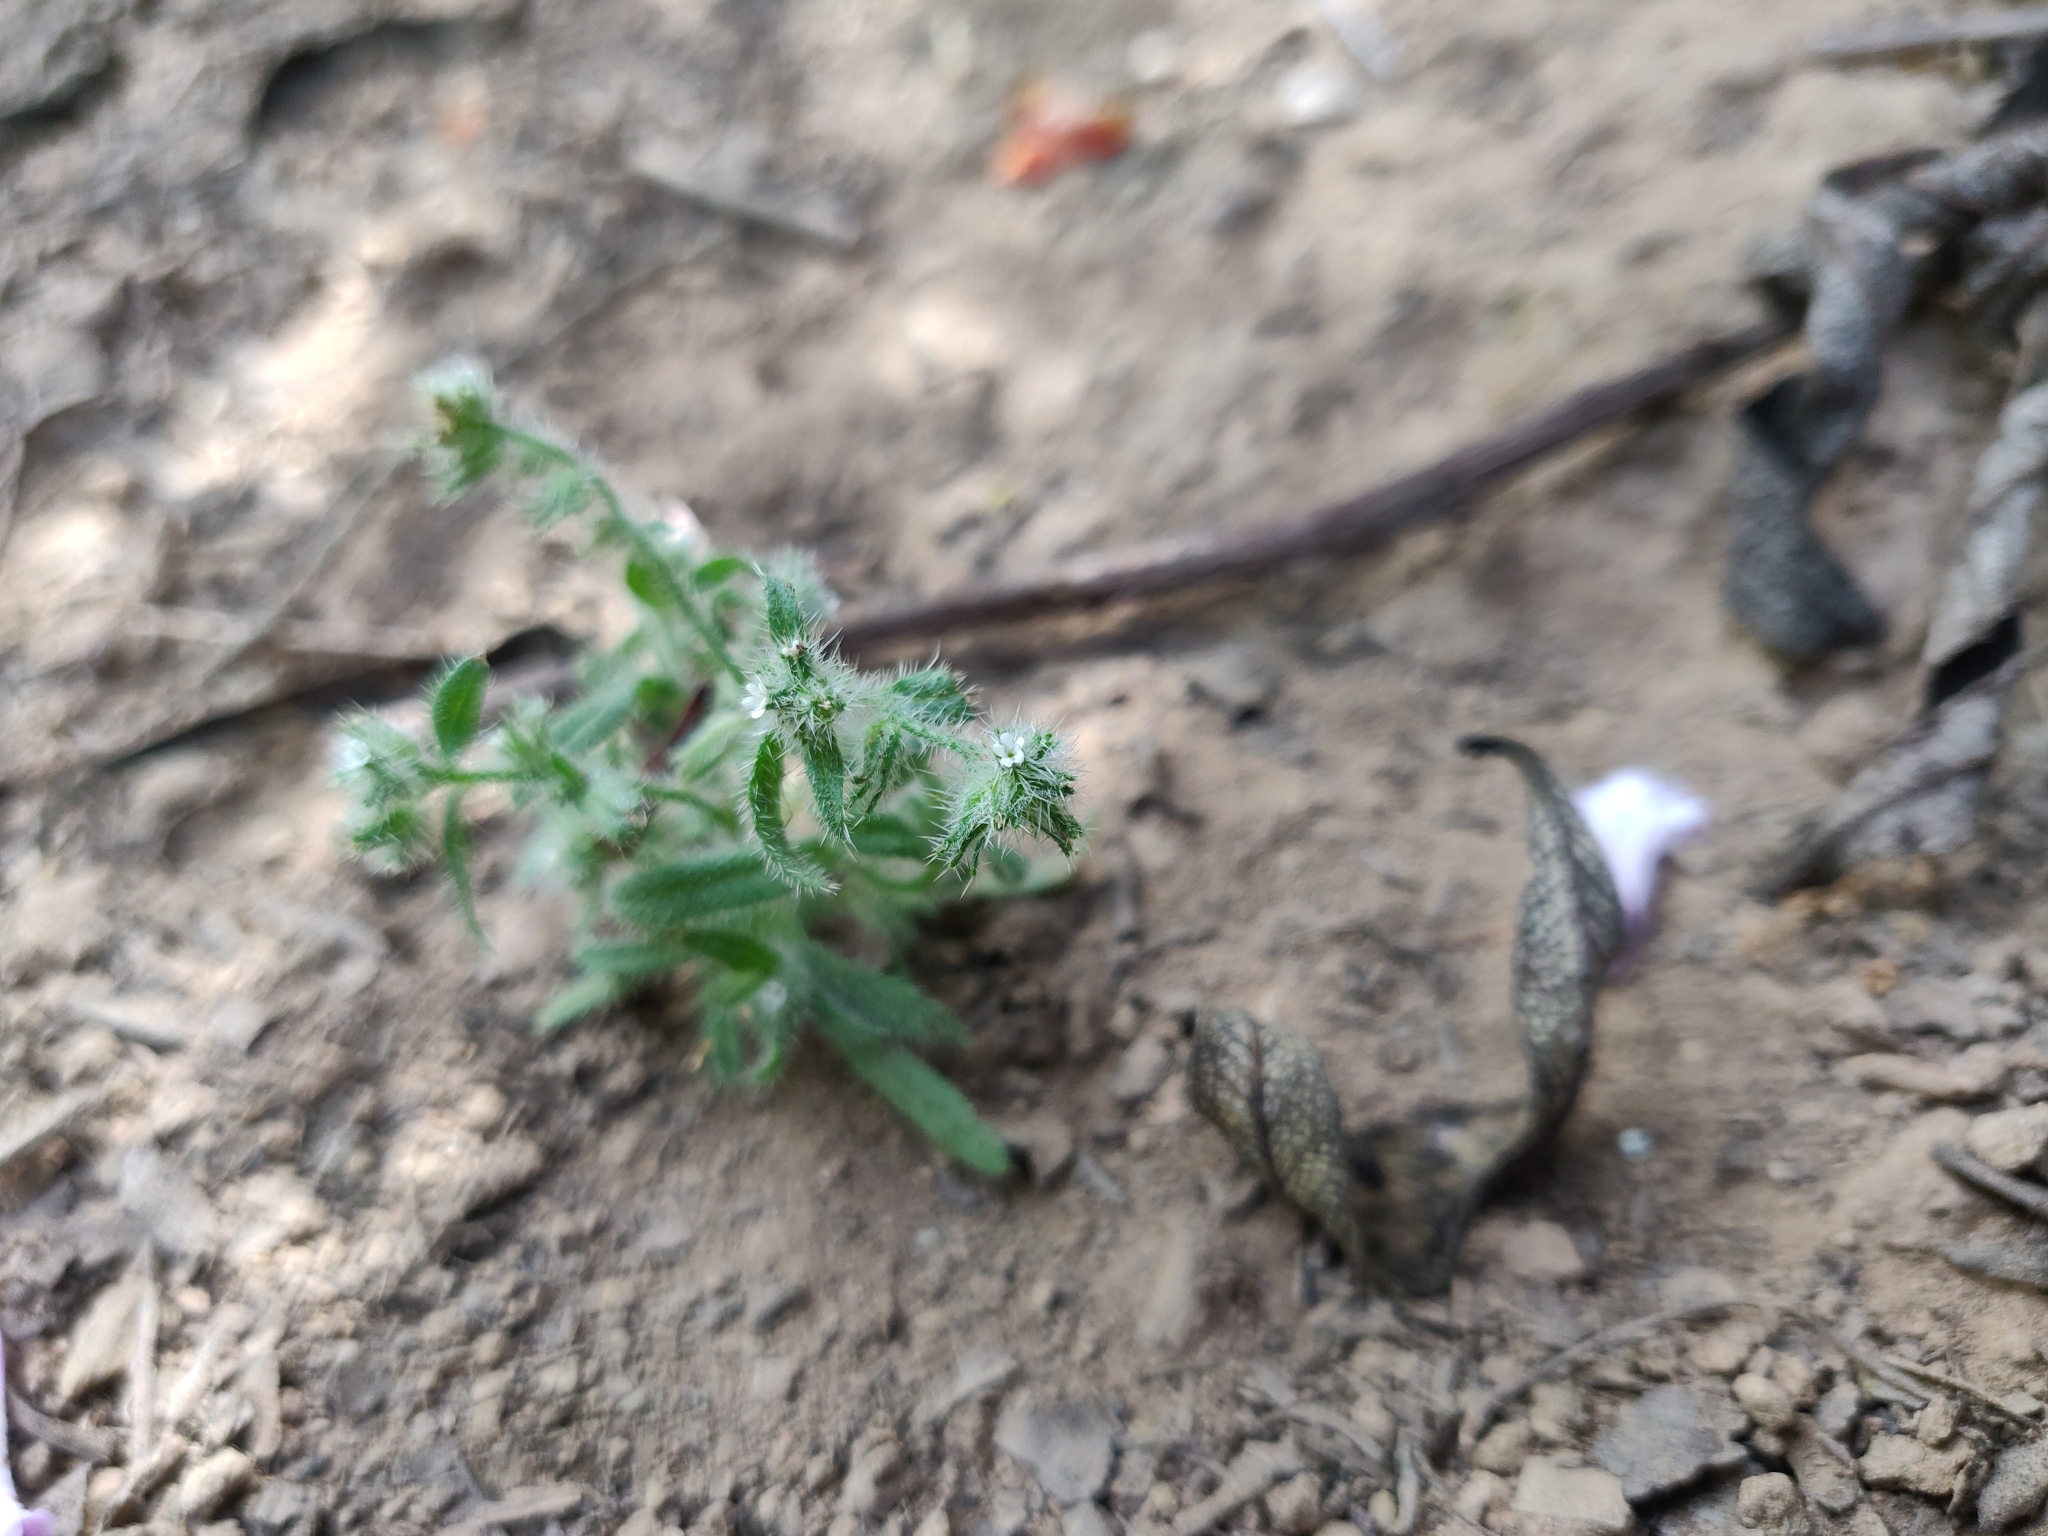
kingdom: Plantae
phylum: Tracheophyta
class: Magnoliopsida
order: Boraginales
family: Boraginaceae
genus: Johnstonella
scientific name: Johnstonella micromeres
